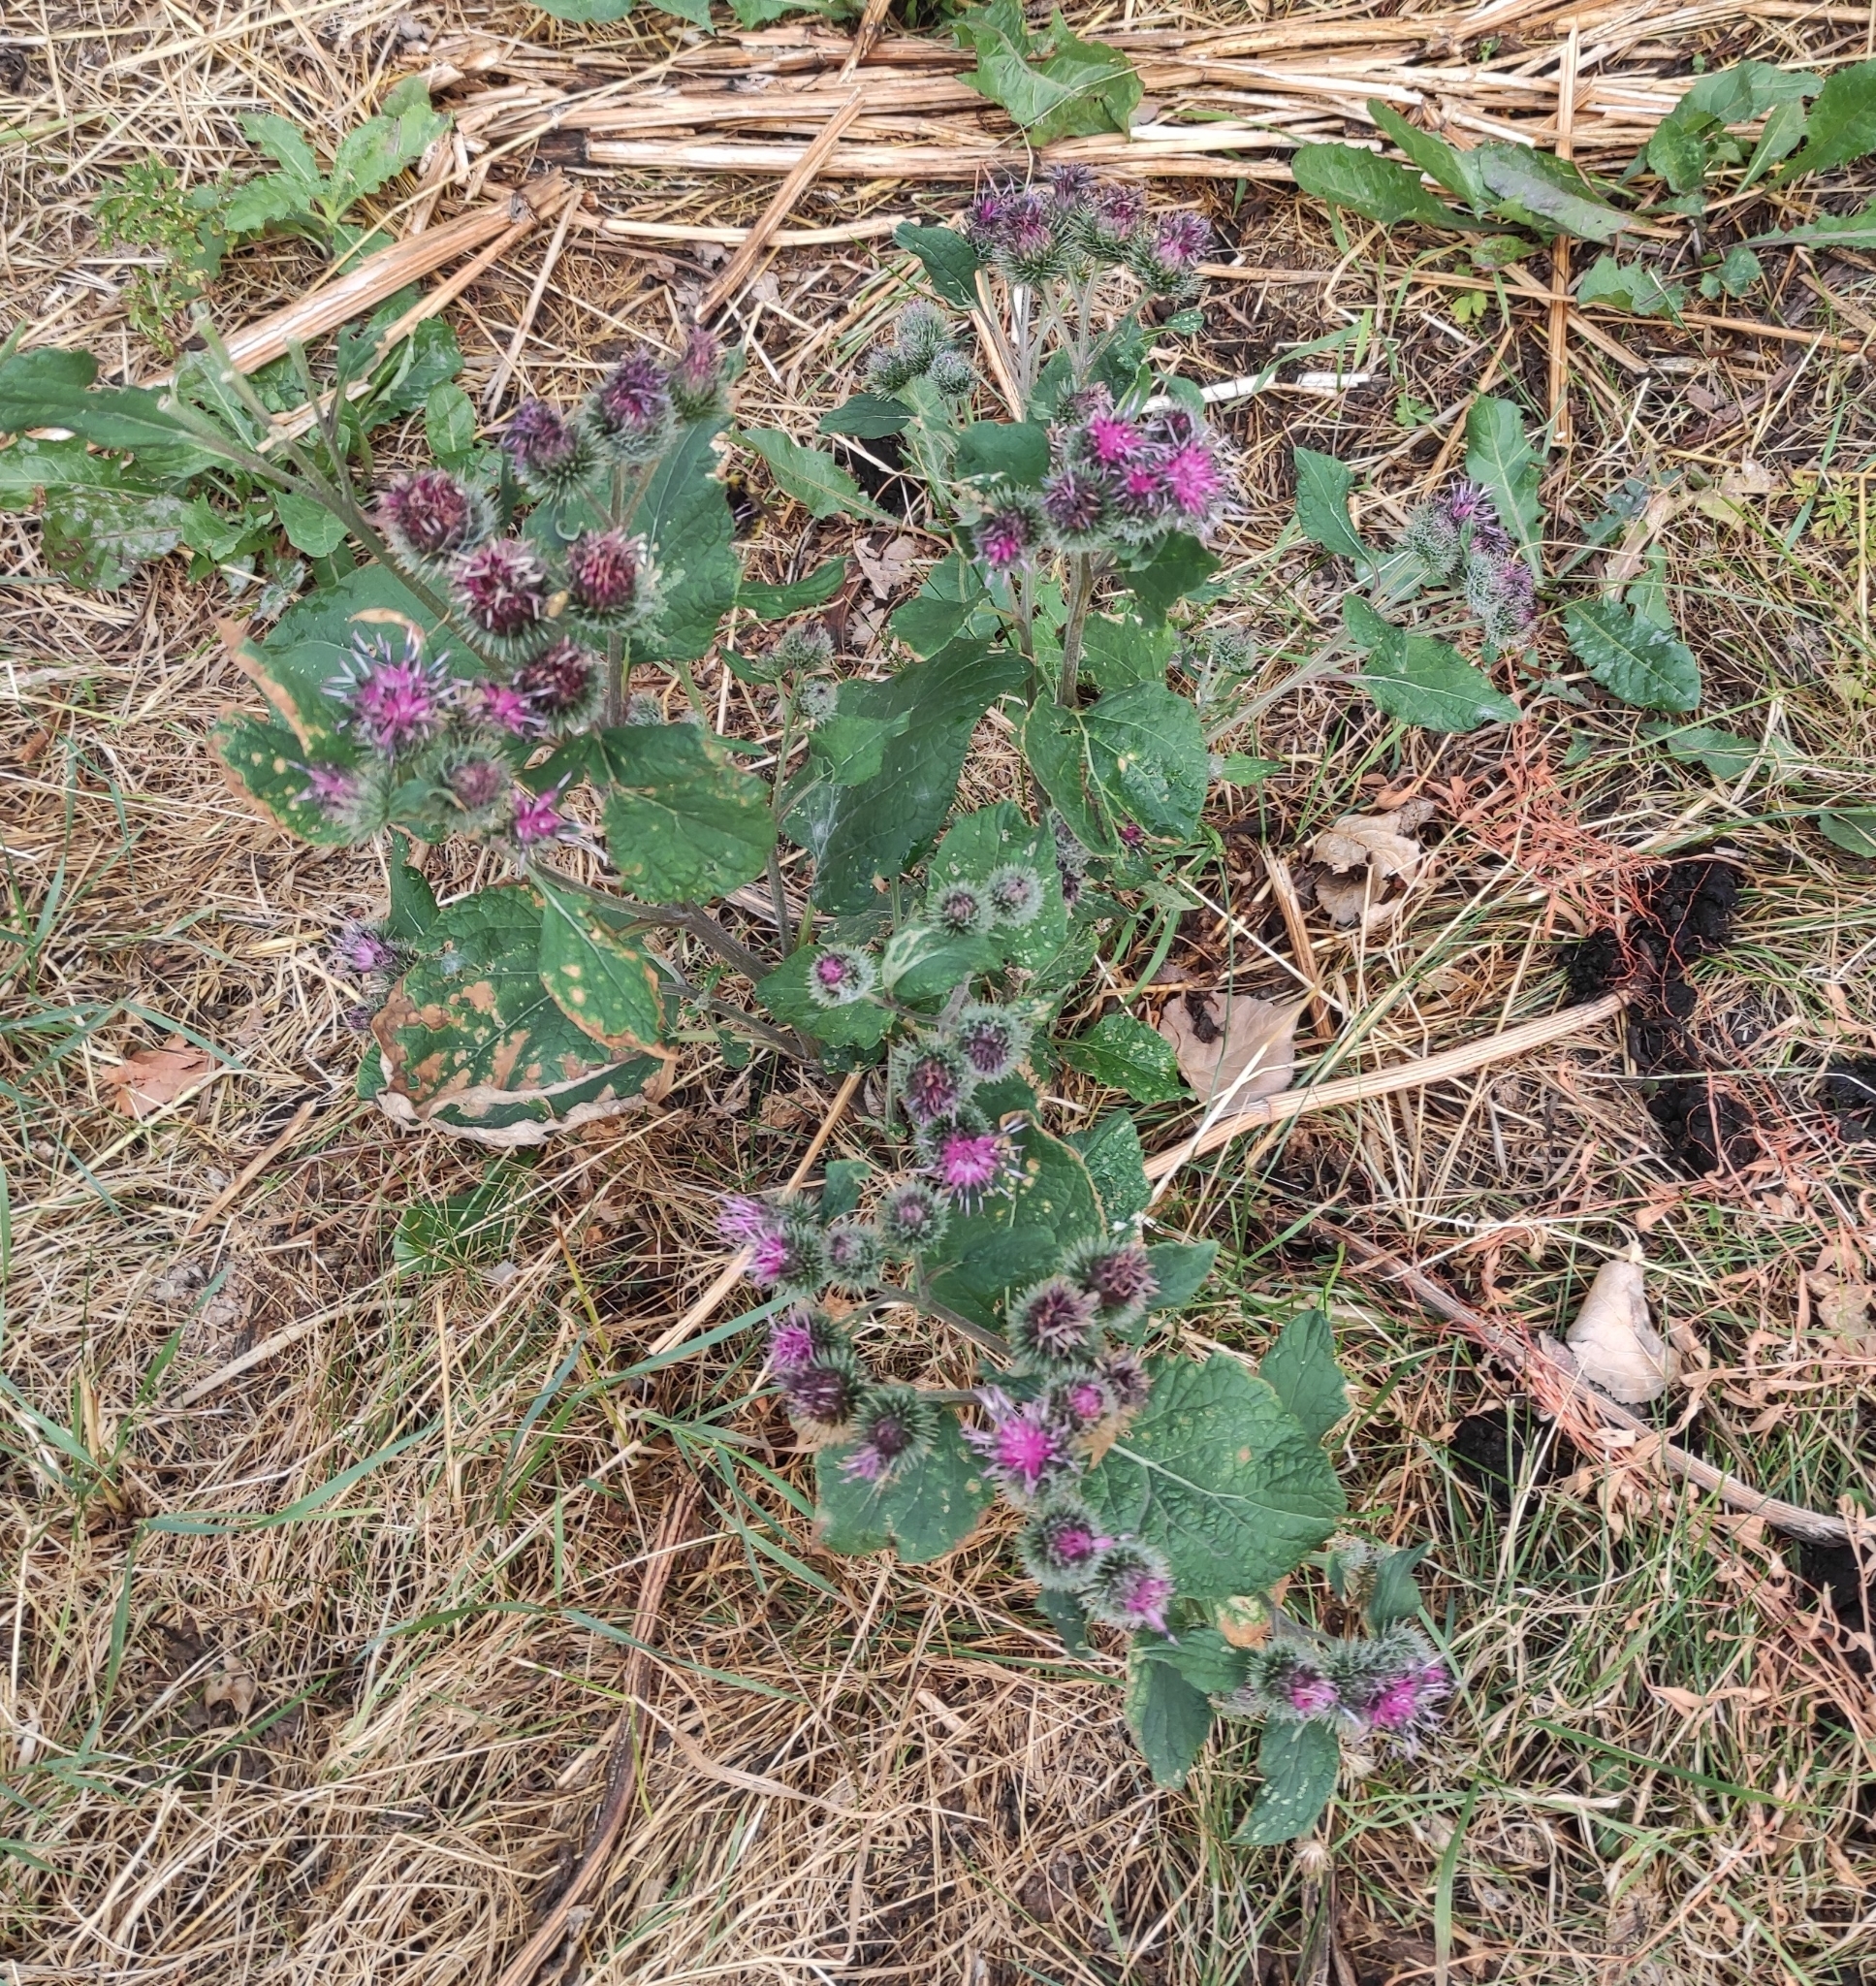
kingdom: Plantae
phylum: Tracheophyta
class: Magnoliopsida
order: Asterales
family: Asteraceae
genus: Arctium
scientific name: Arctium tomentosum
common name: Woolly burdock
